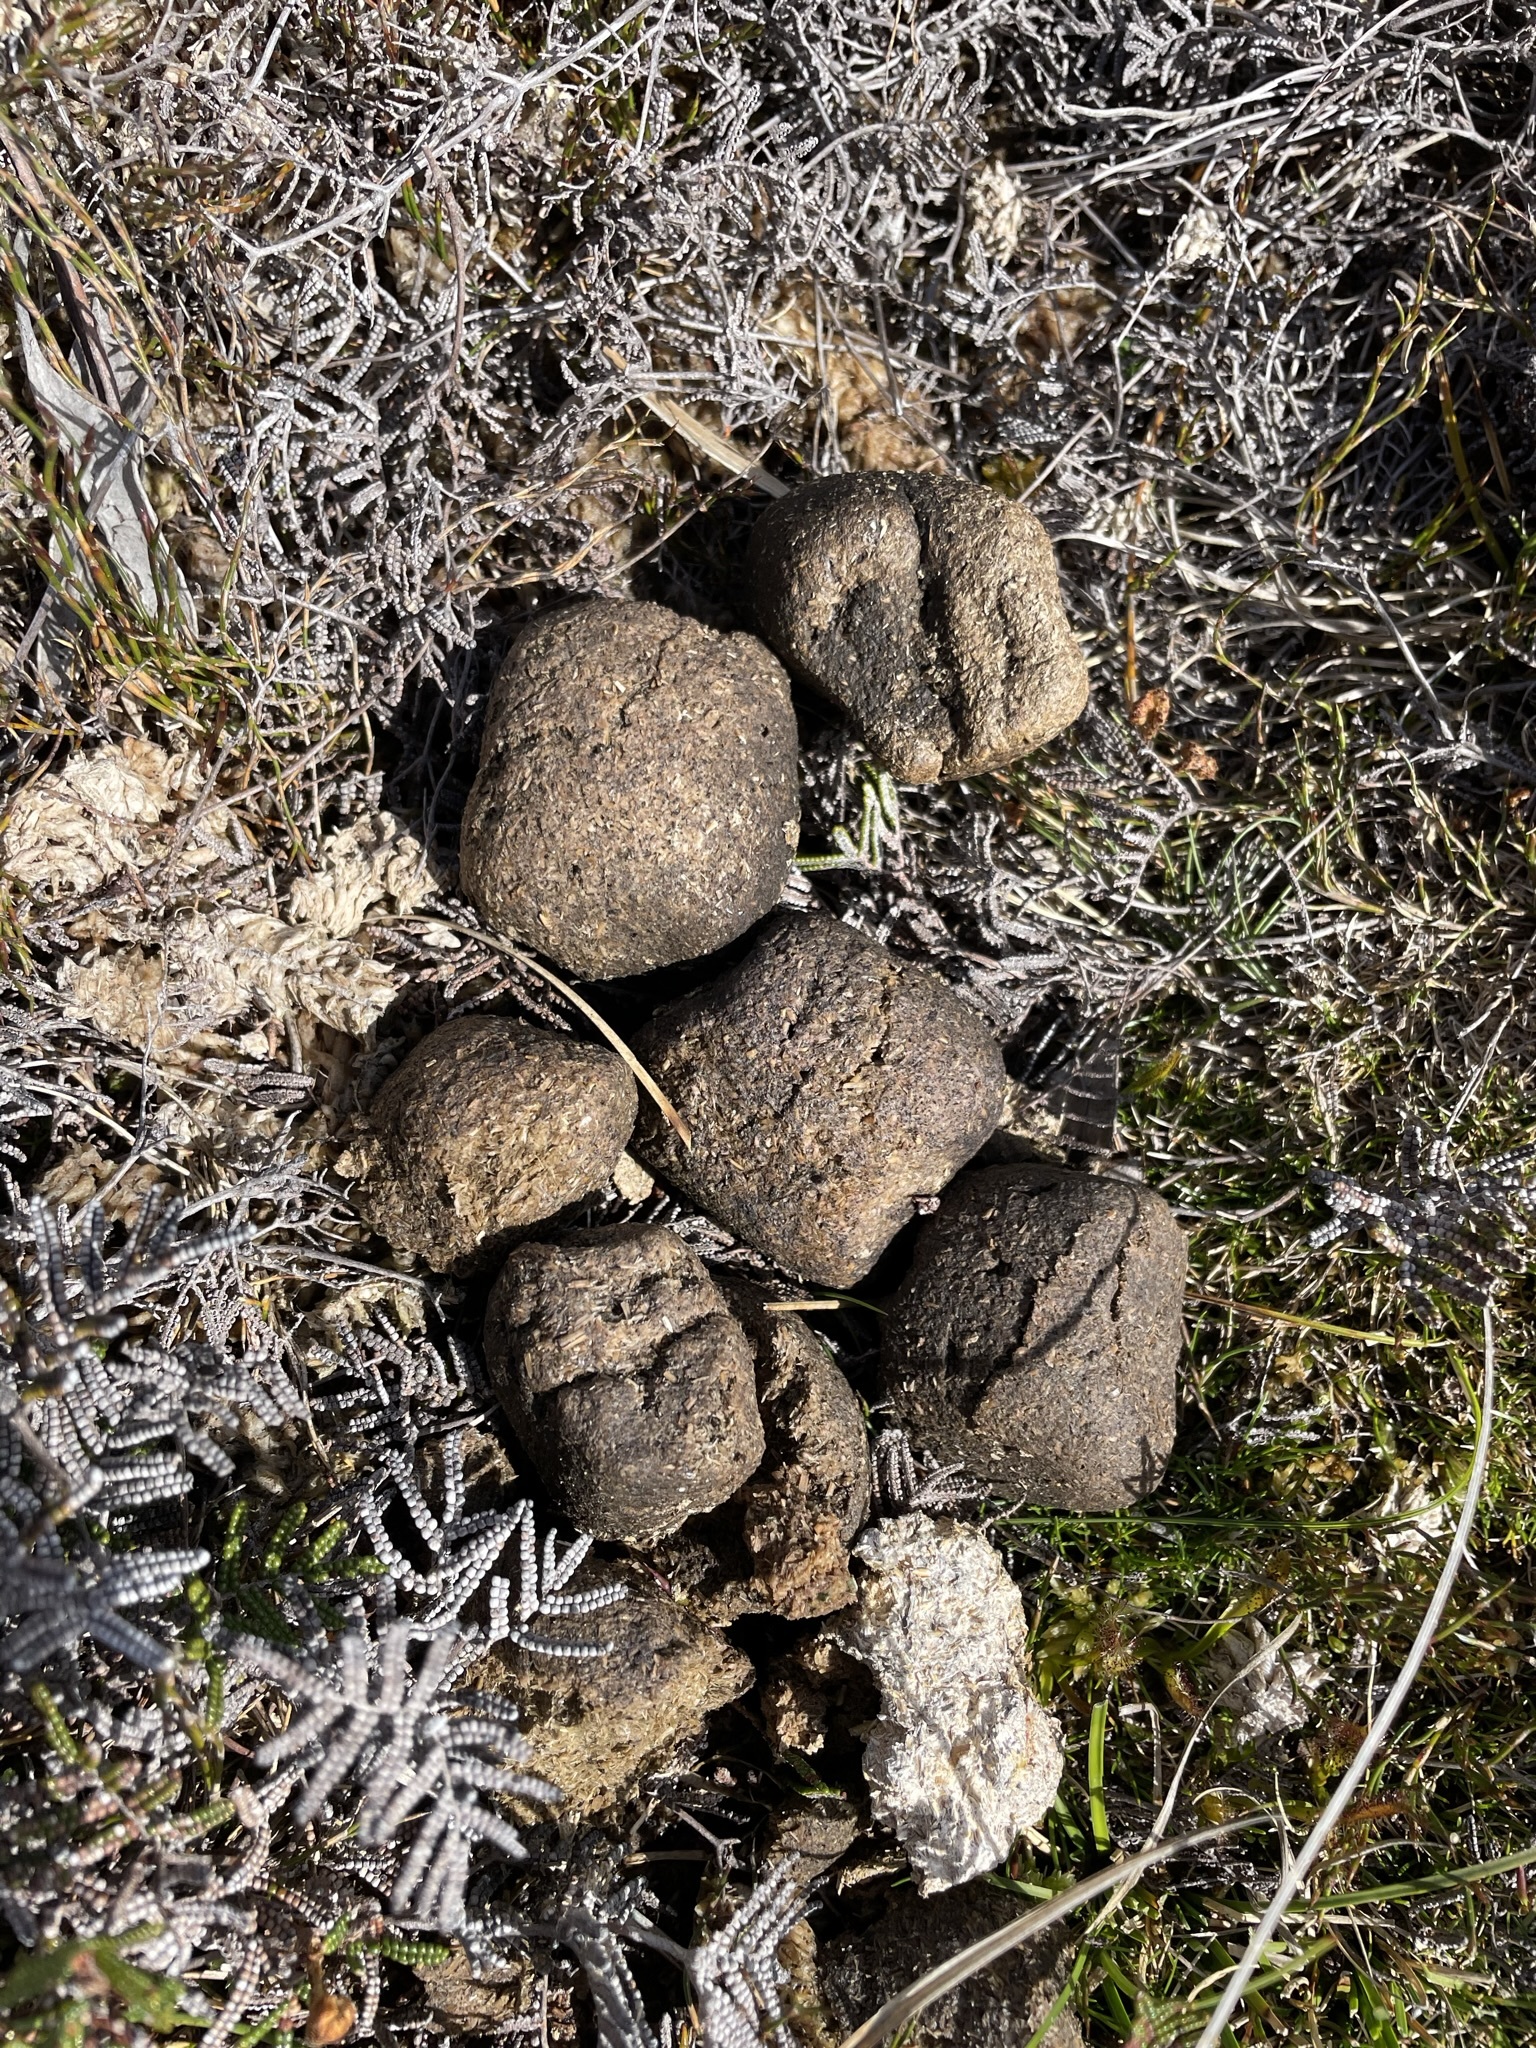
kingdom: Animalia
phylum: Chordata
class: Mammalia
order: Diprotodontia
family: Vombatidae
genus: Vombatus
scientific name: Vombatus ursinus
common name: Common wombat
